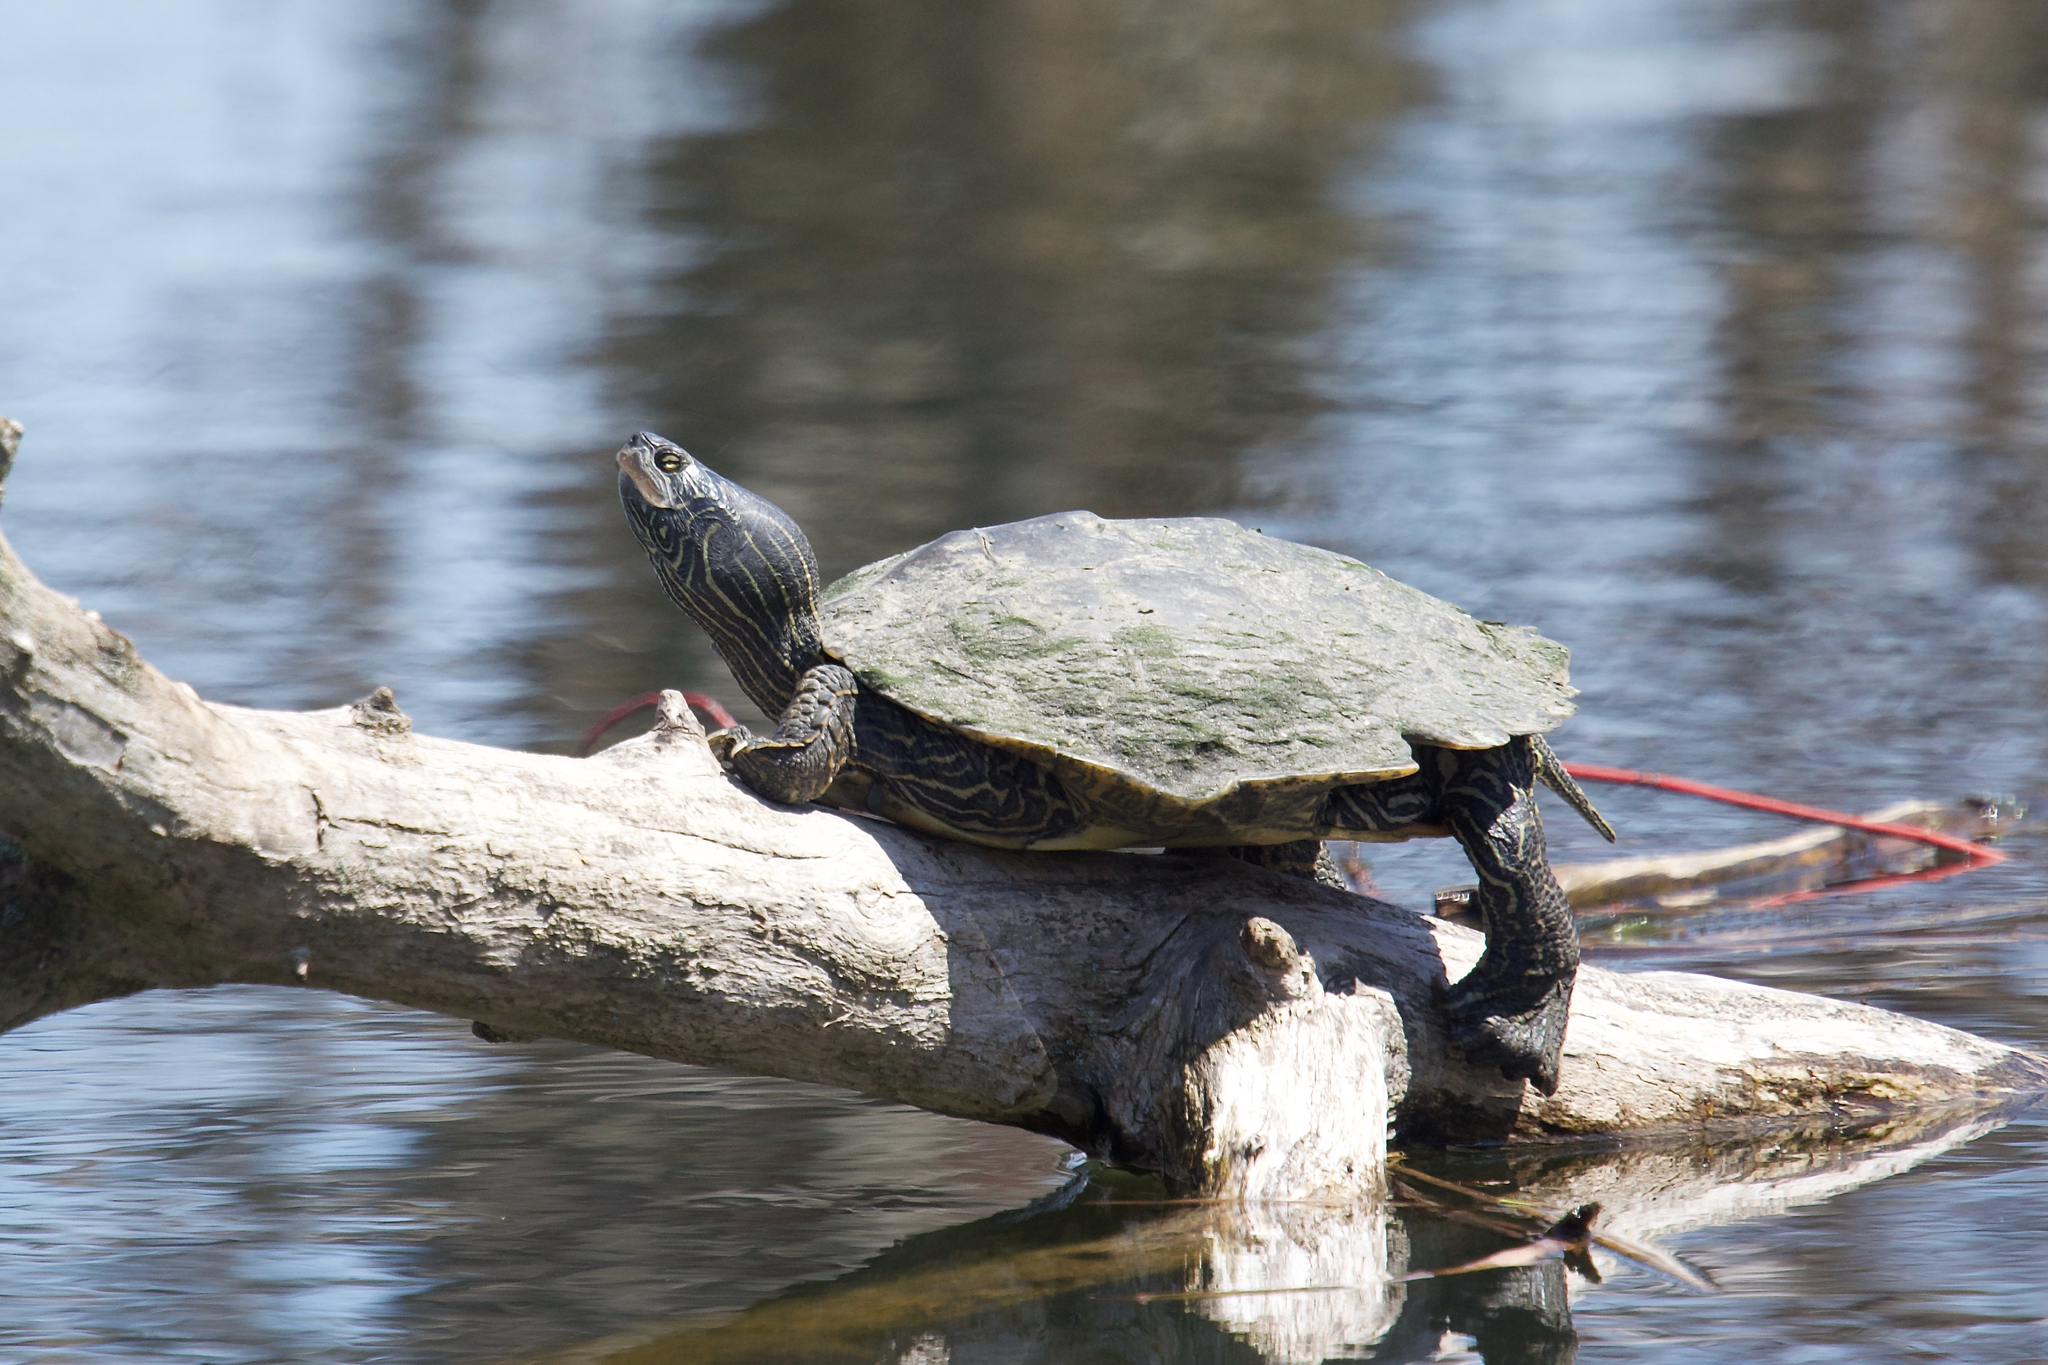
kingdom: Animalia
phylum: Chordata
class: Testudines
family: Emydidae
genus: Graptemys
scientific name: Graptemys geographica
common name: Common map turtle
